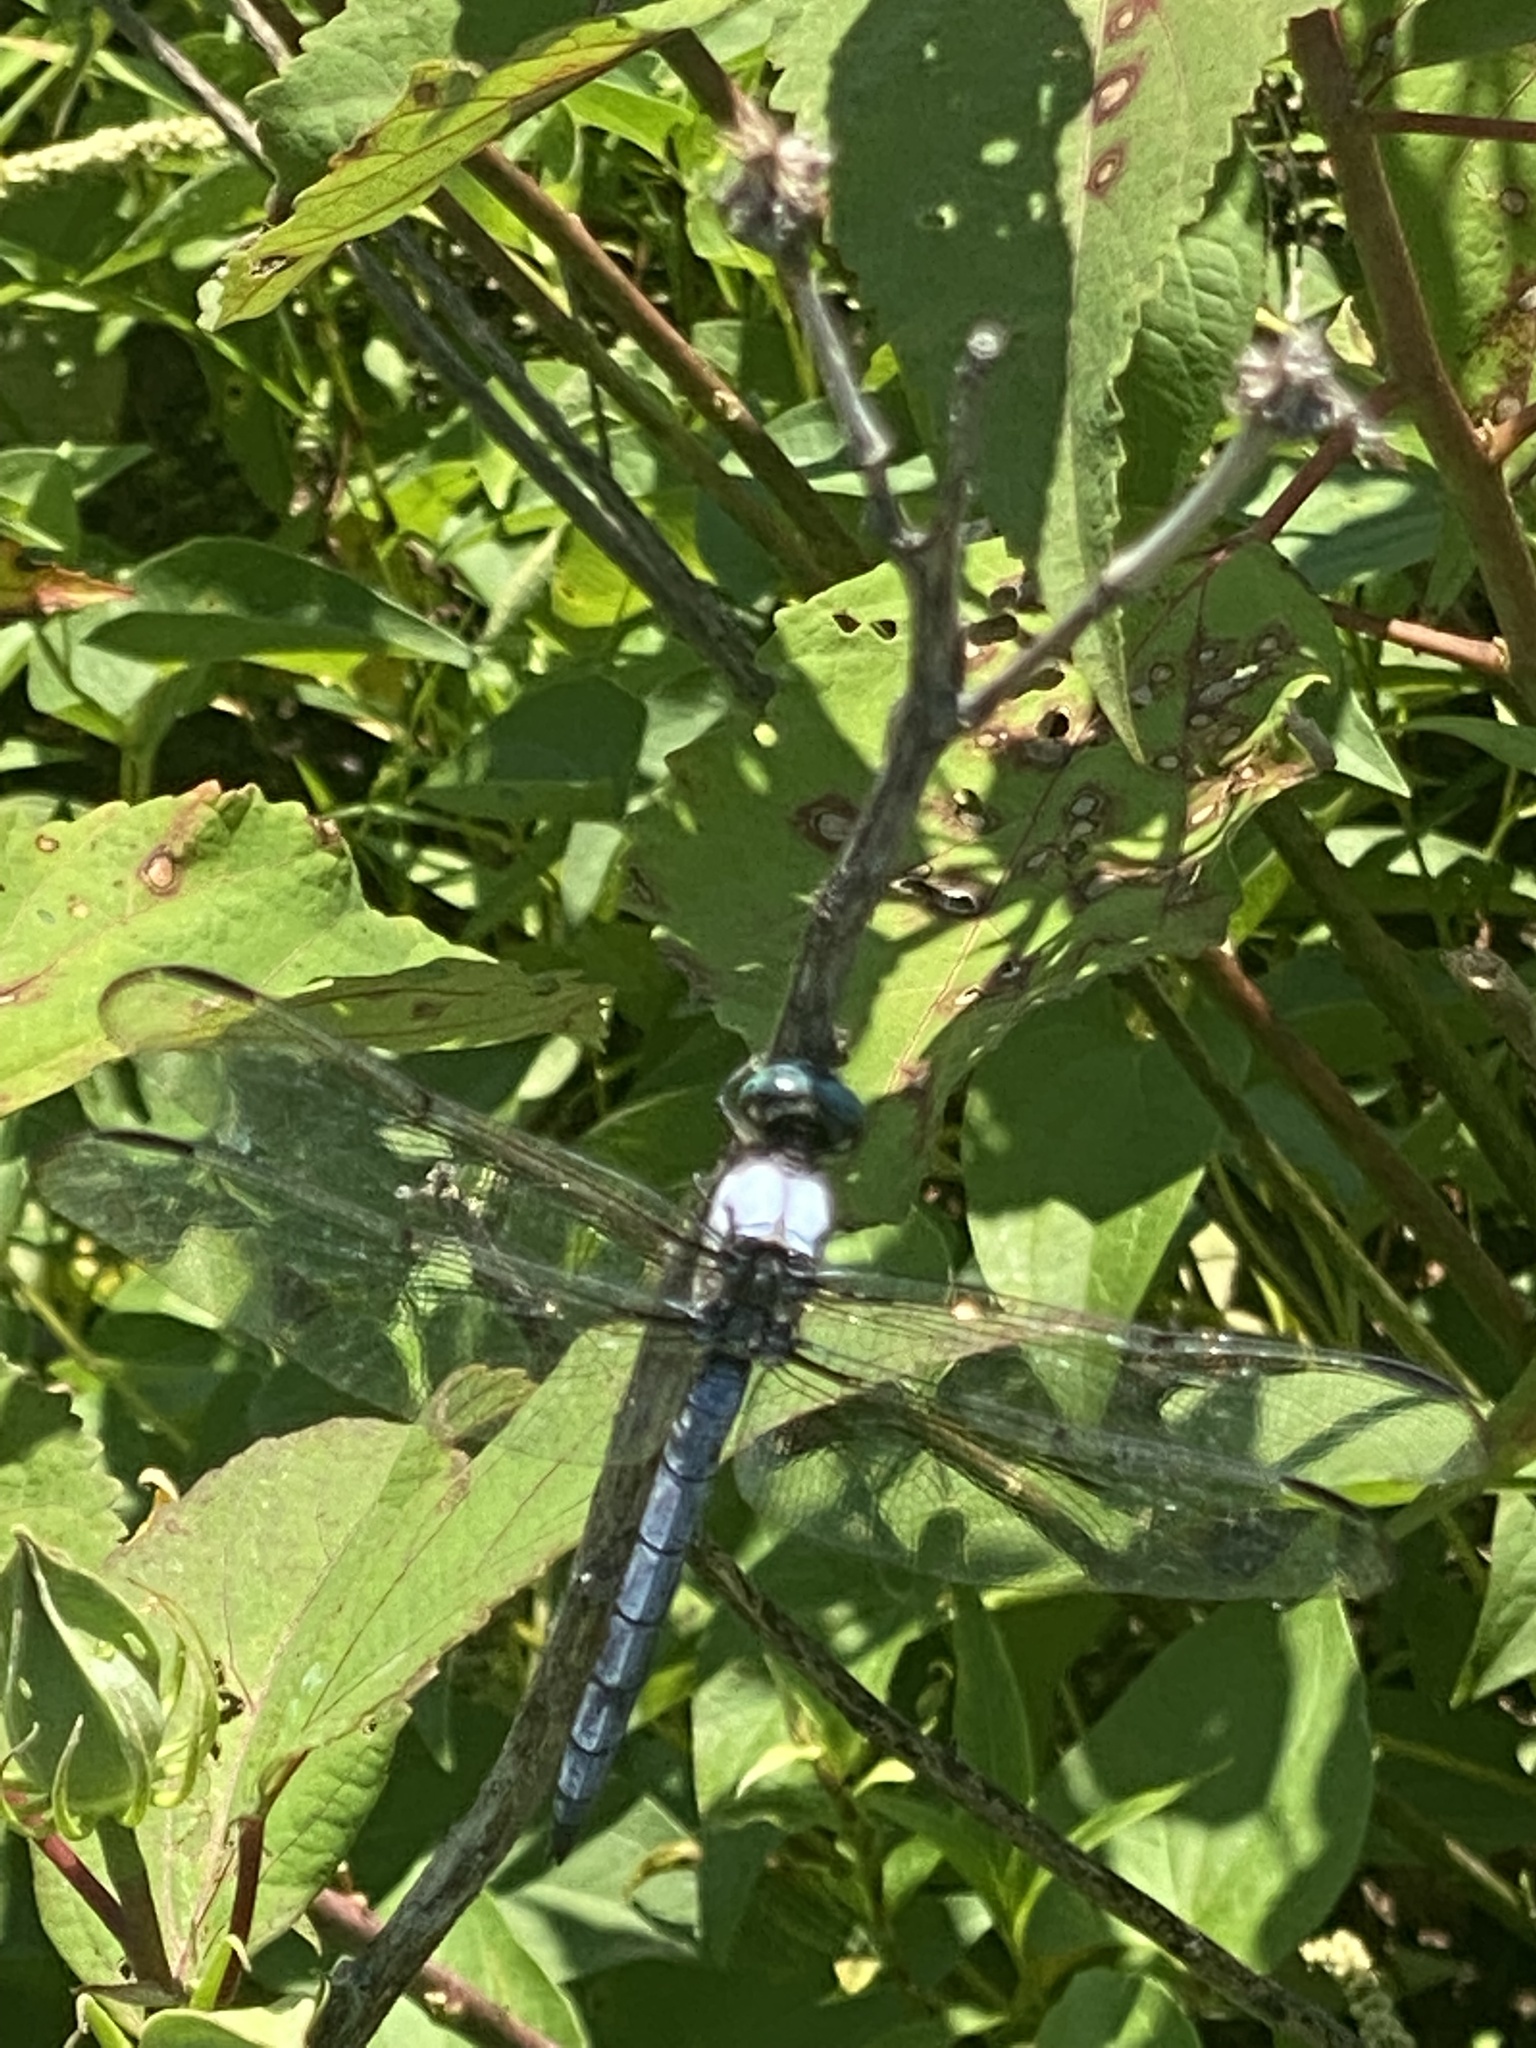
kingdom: Animalia
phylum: Arthropoda
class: Insecta
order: Odonata
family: Libellulidae
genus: Libellula
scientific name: Libellula vibrans
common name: Great blue skimmer
